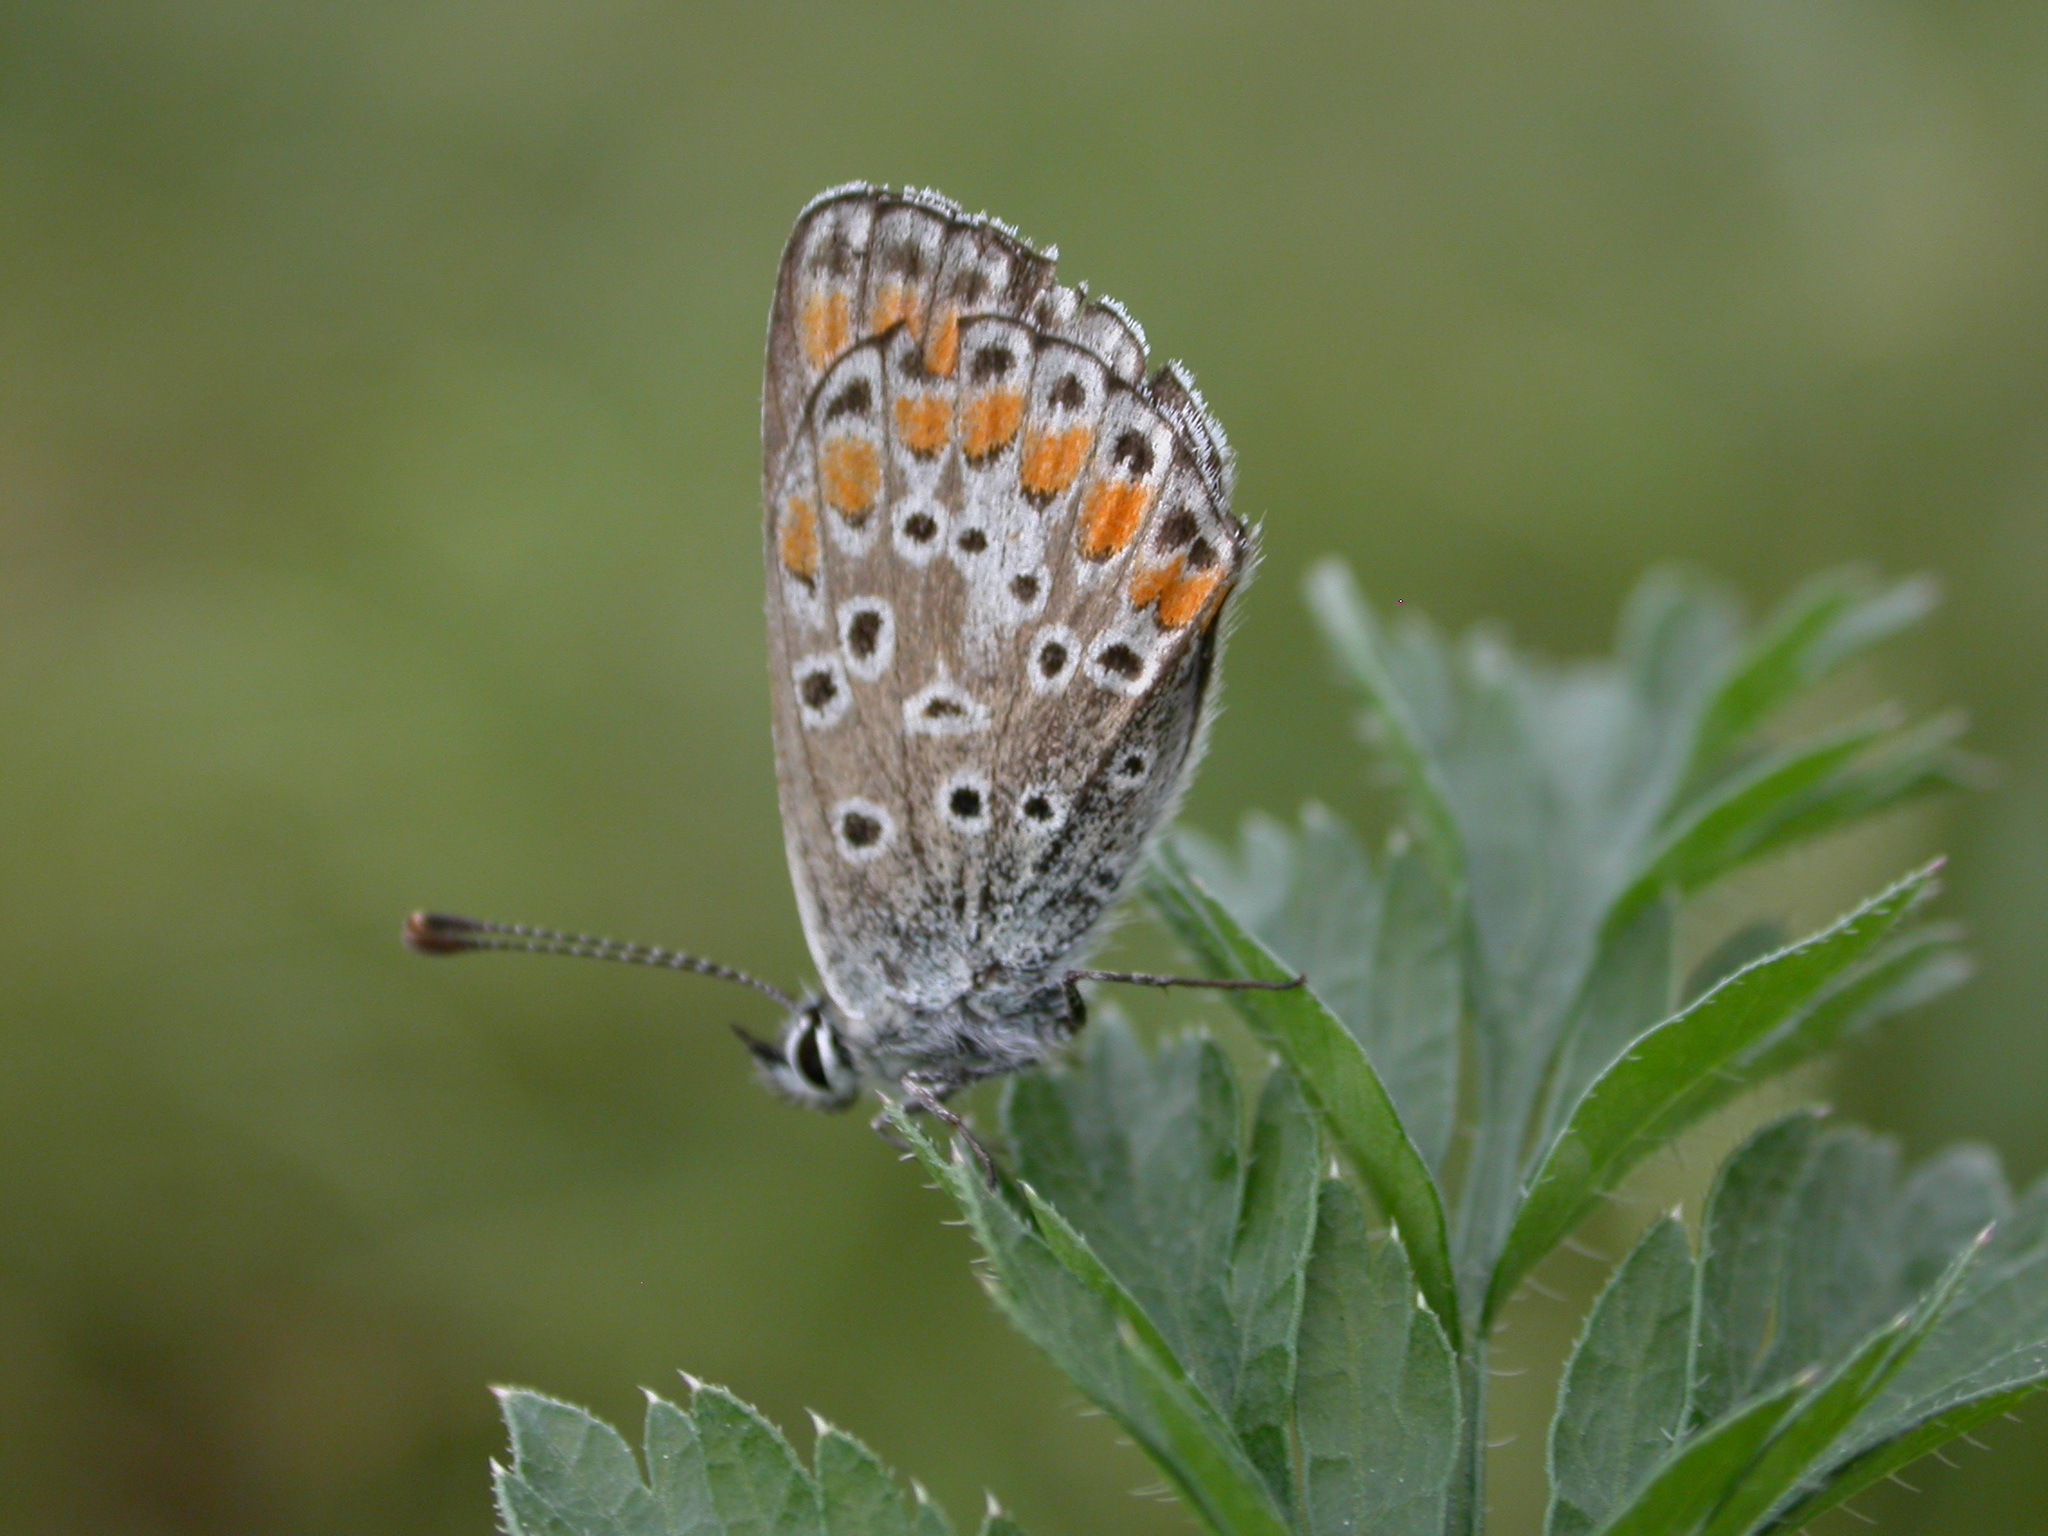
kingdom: Animalia
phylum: Arthropoda
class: Insecta
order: Lepidoptera
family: Lycaenidae
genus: Aricia
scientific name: Aricia agestis
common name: Brown argus
